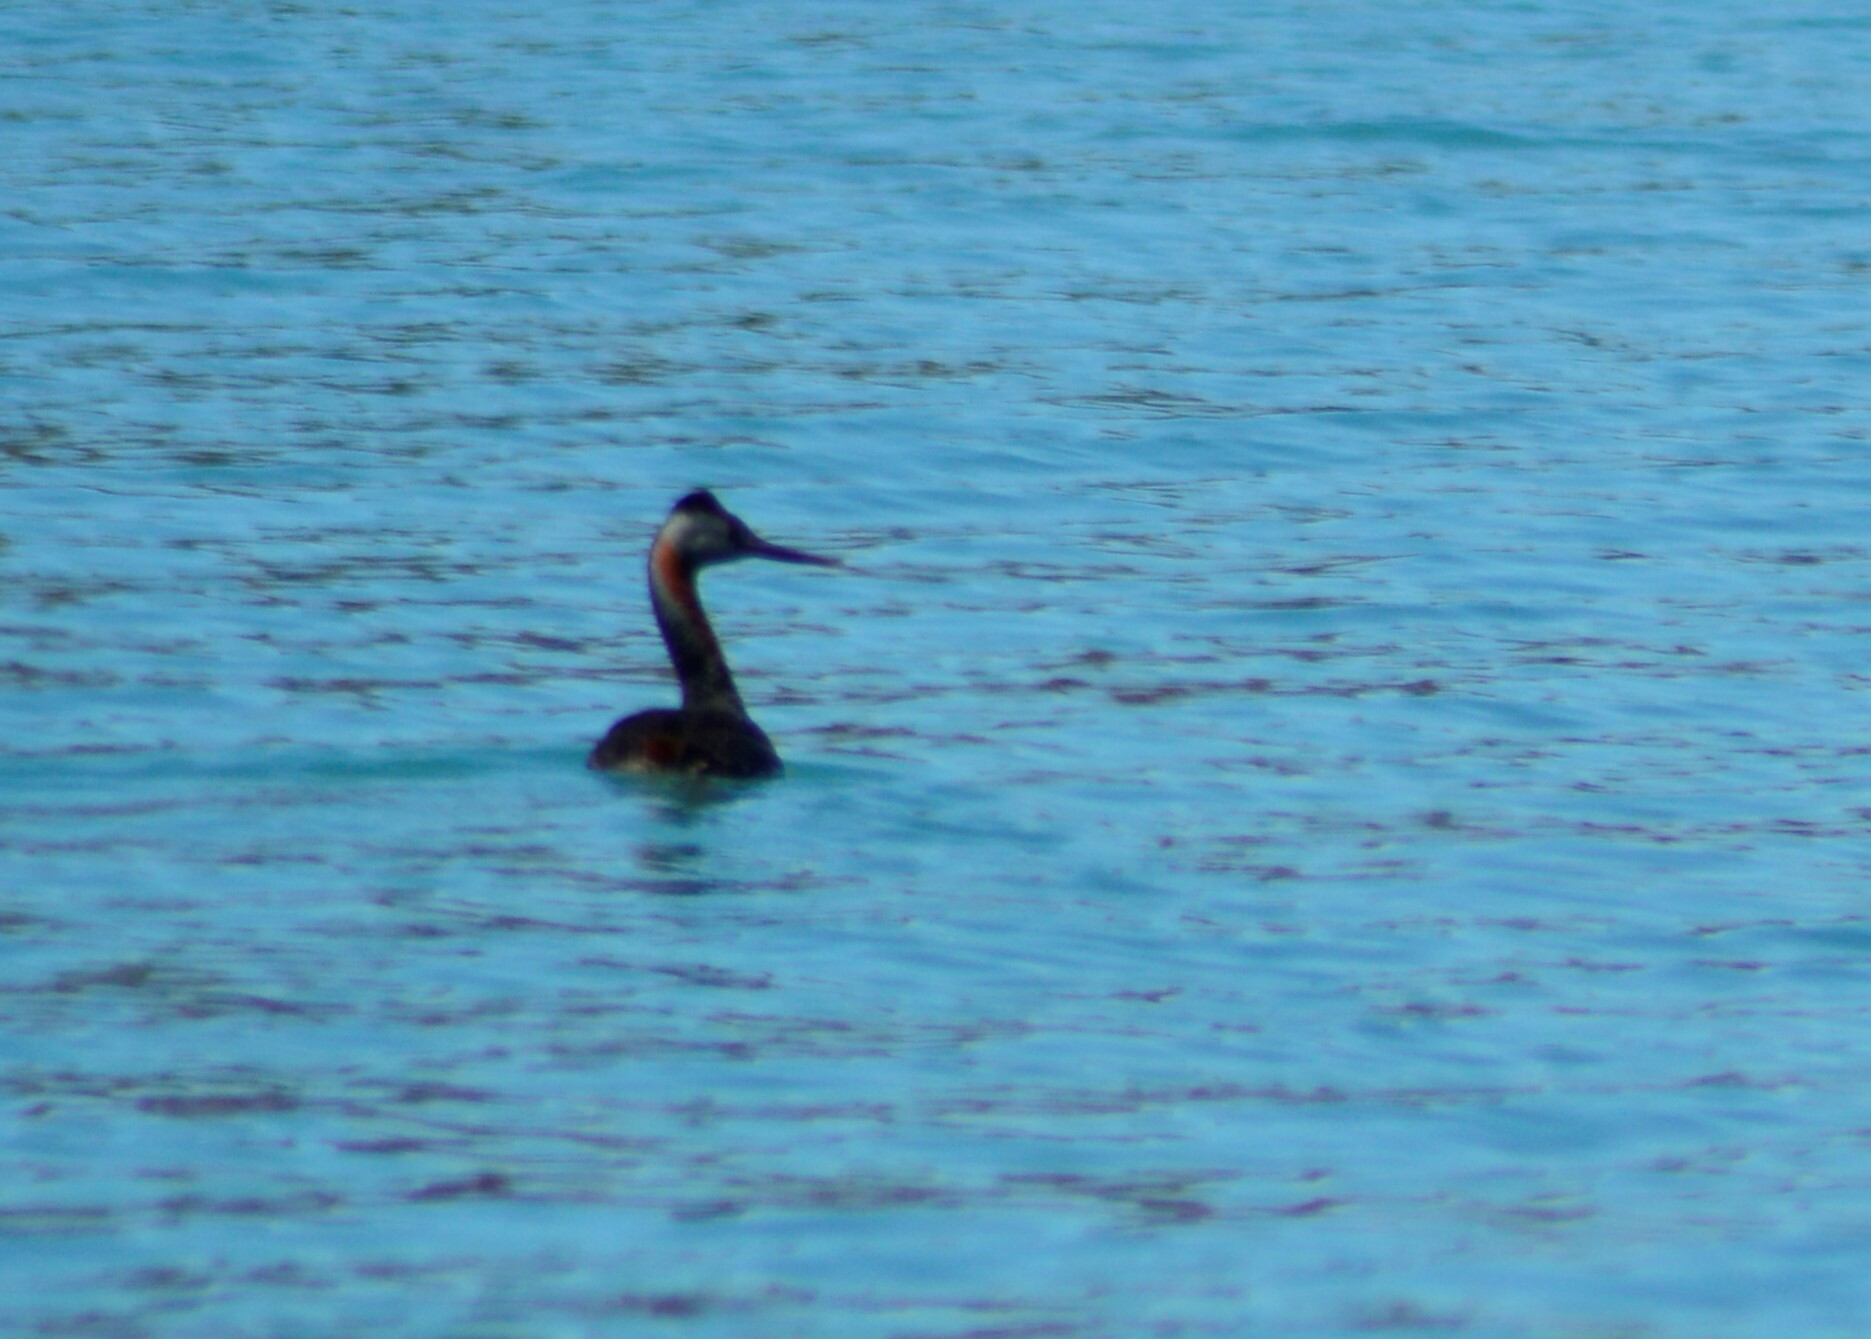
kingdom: Animalia
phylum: Chordata
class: Aves
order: Podicipediformes
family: Podicipedidae
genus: Podiceps
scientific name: Podiceps major
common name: Great grebe
